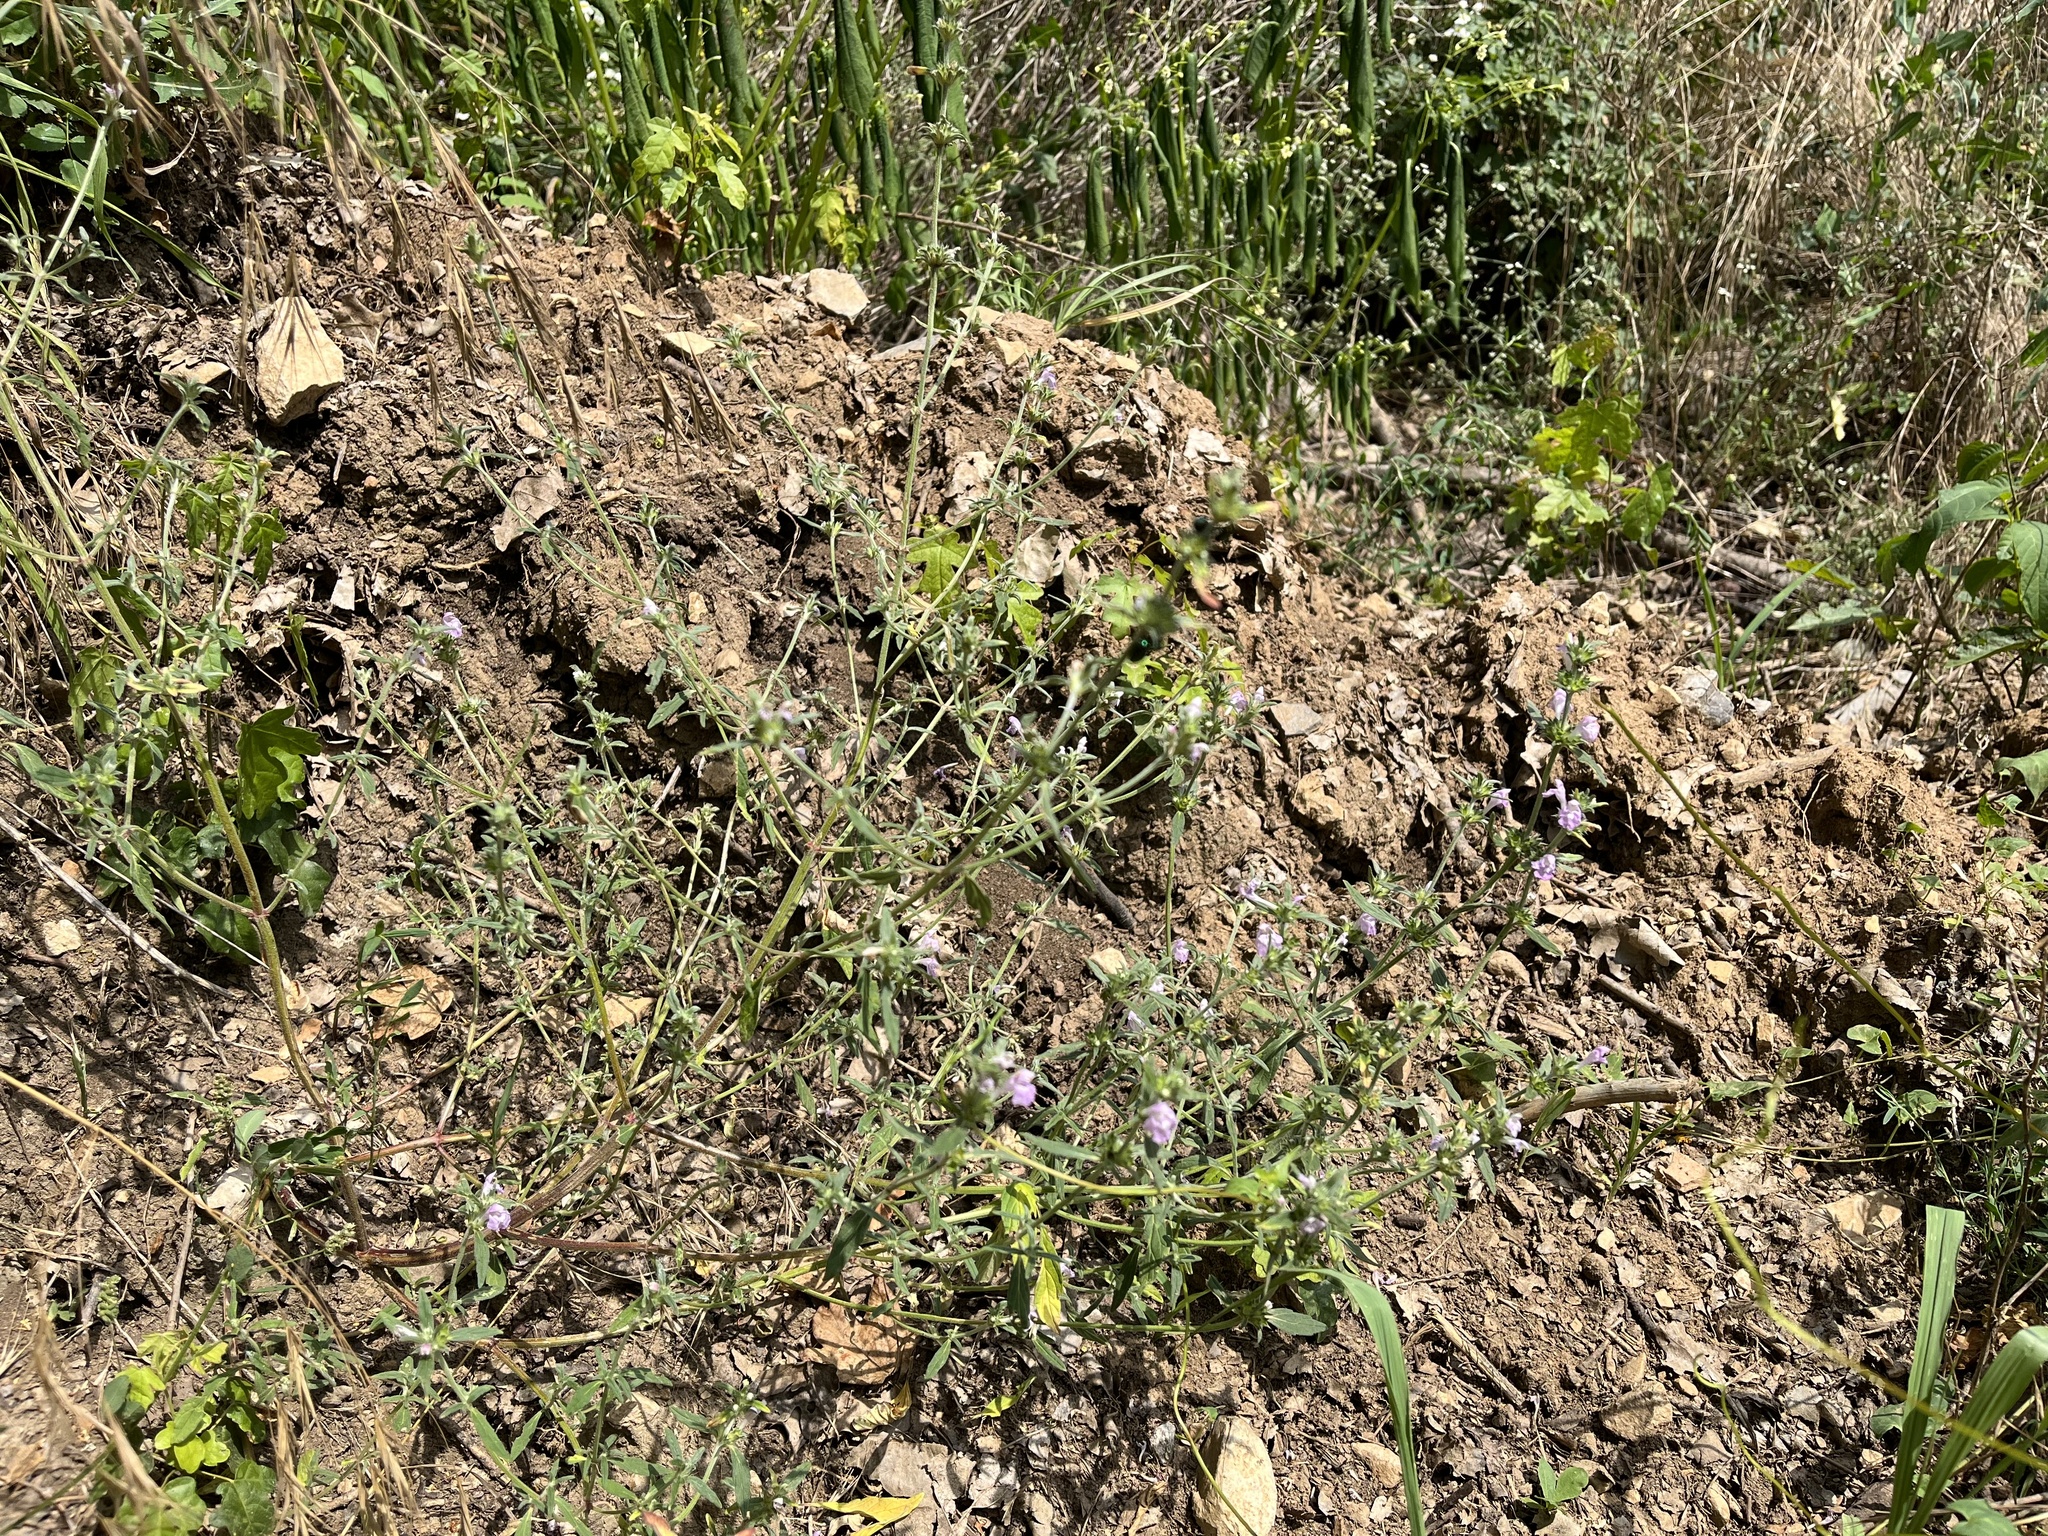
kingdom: Plantae
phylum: Tracheophyta
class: Magnoliopsida
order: Lamiales
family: Lamiaceae
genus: Galeopsis
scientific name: Galeopsis angustifolia
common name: Red hemp-nettle
